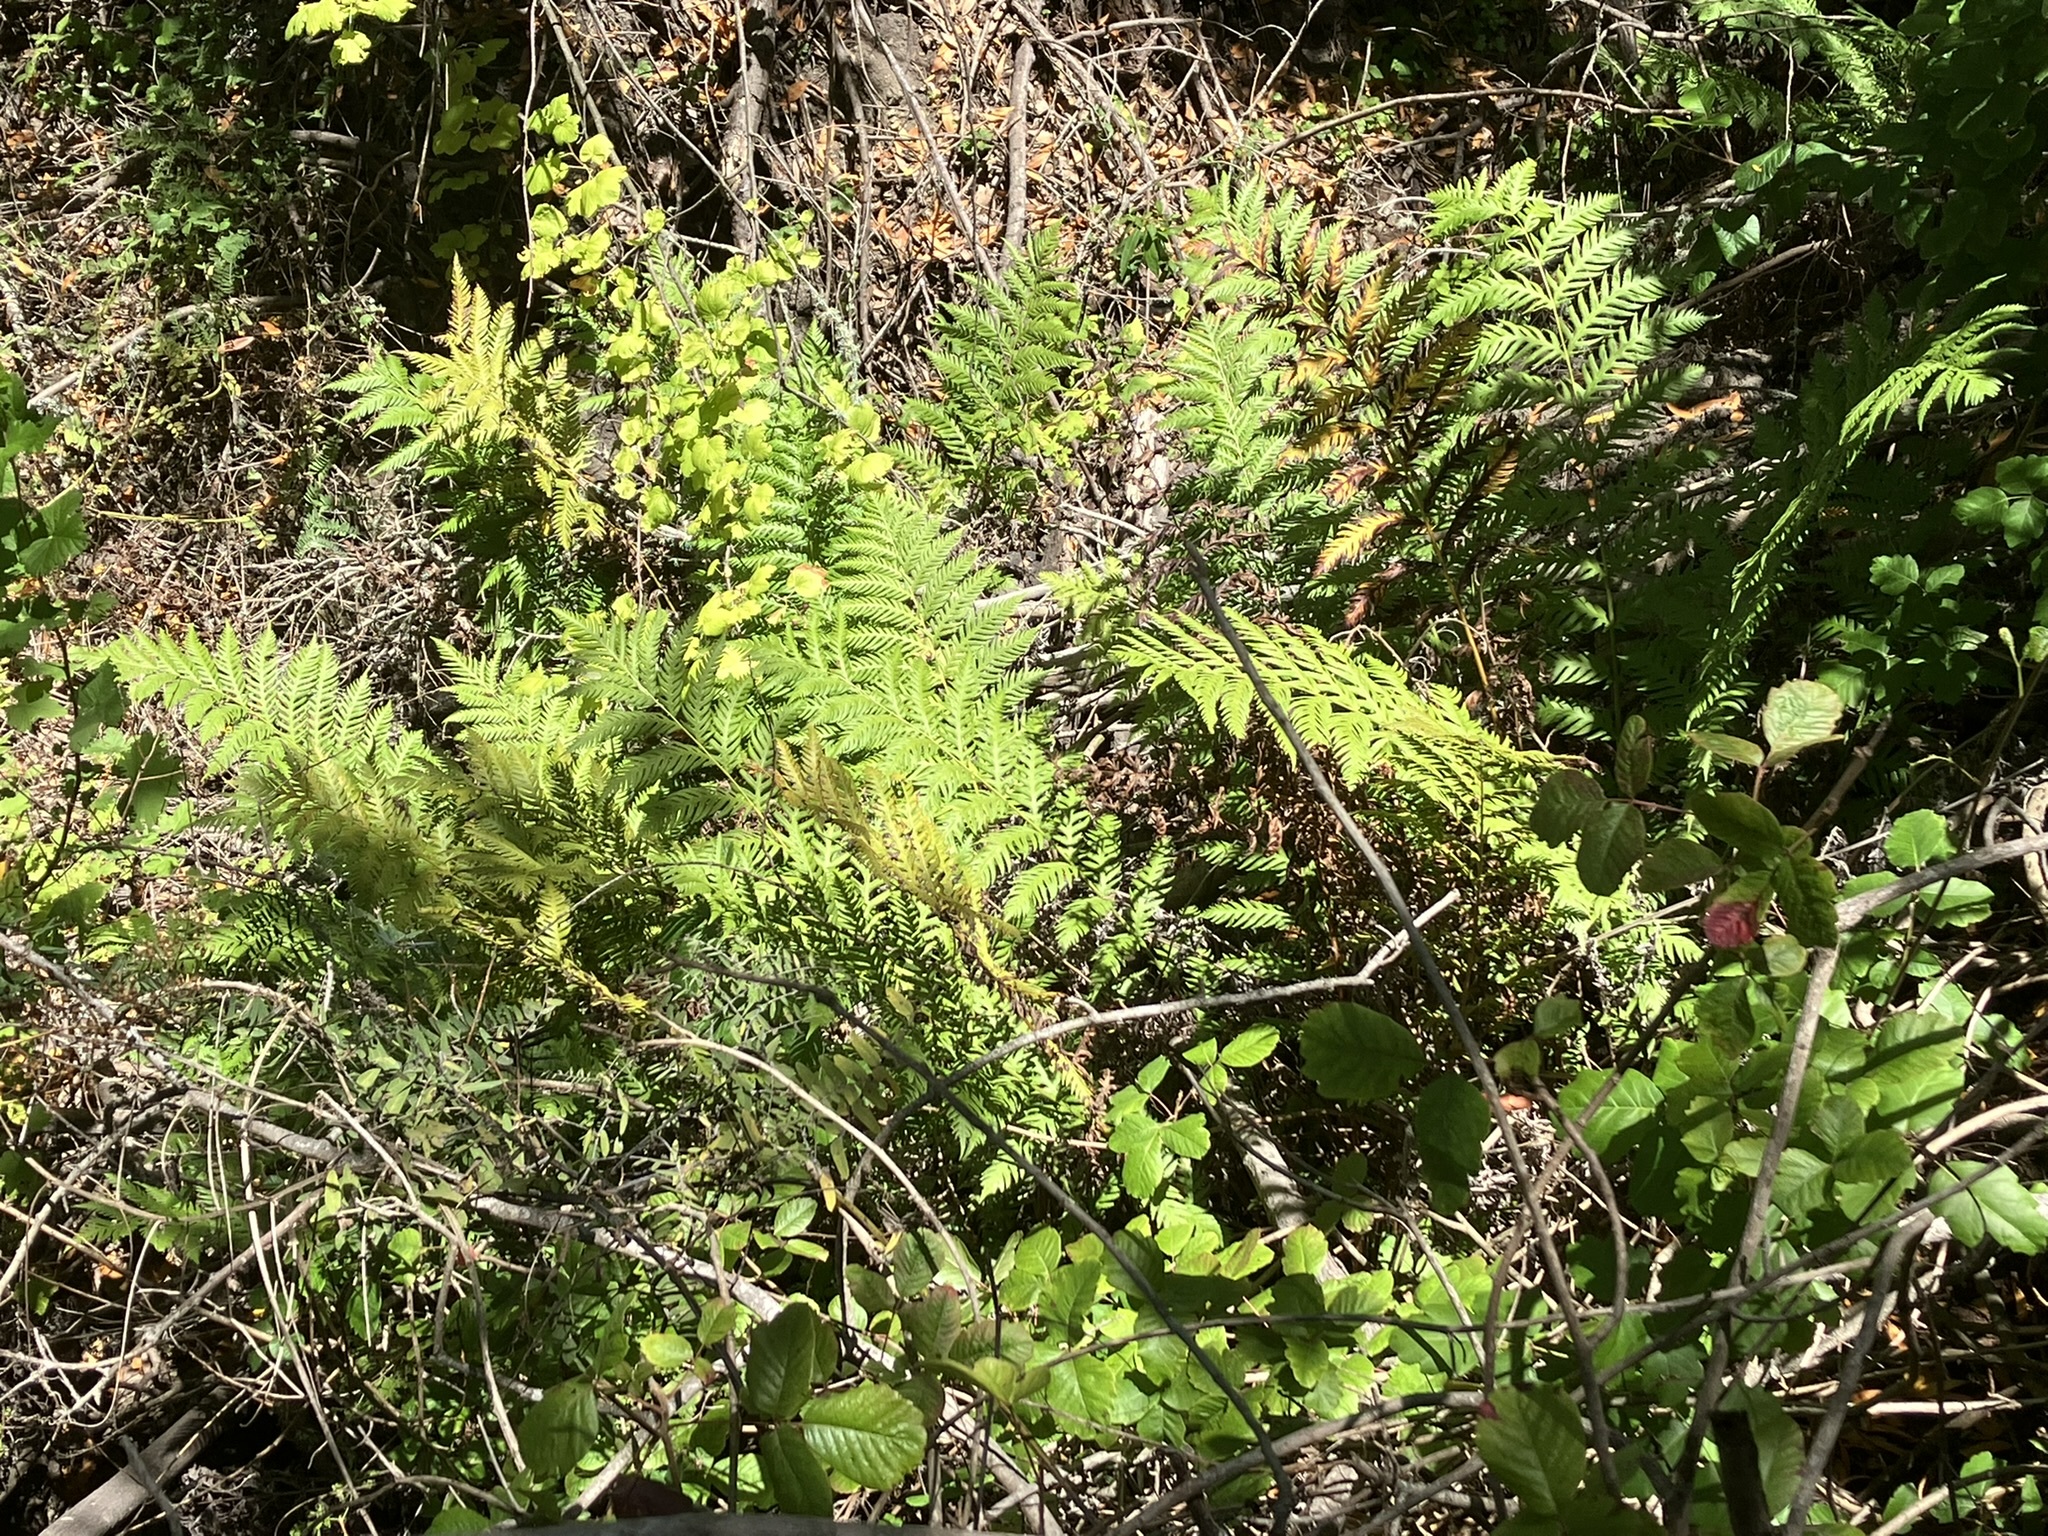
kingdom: Plantae
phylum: Tracheophyta
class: Polypodiopsida
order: Polypodiales
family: Blechnaceae
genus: Woodwardia
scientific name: Woodwardia fimbriata
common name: Giant chain fern
